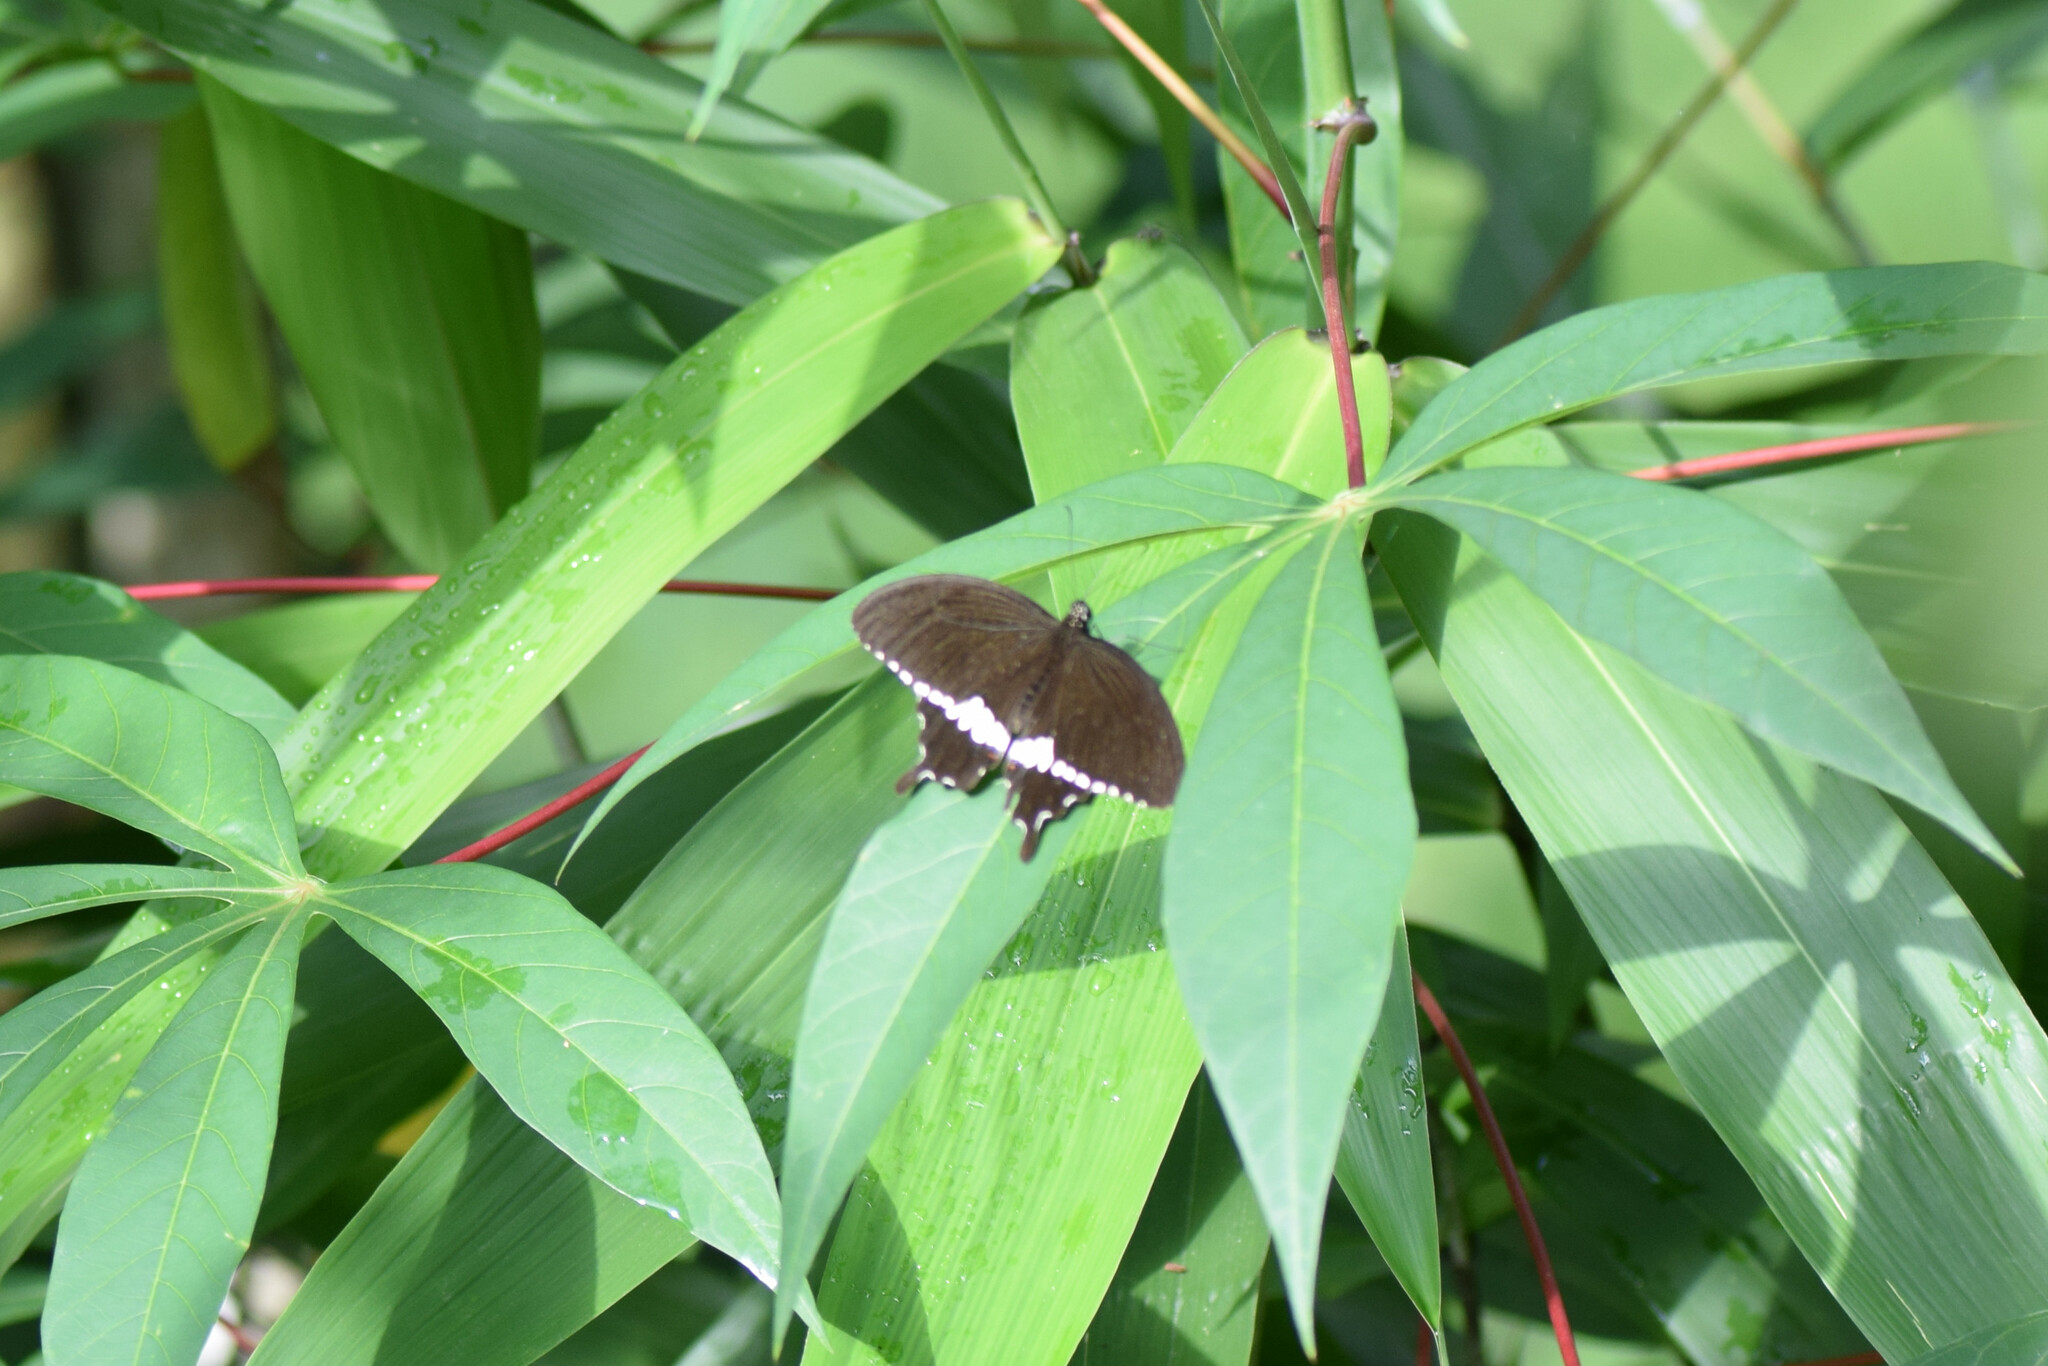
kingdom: Animalia
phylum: Arthropoda
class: Insecta
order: Lepidoptera
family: Papilionidae
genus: Papilio
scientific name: Papilio polytes
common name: Common mormon
